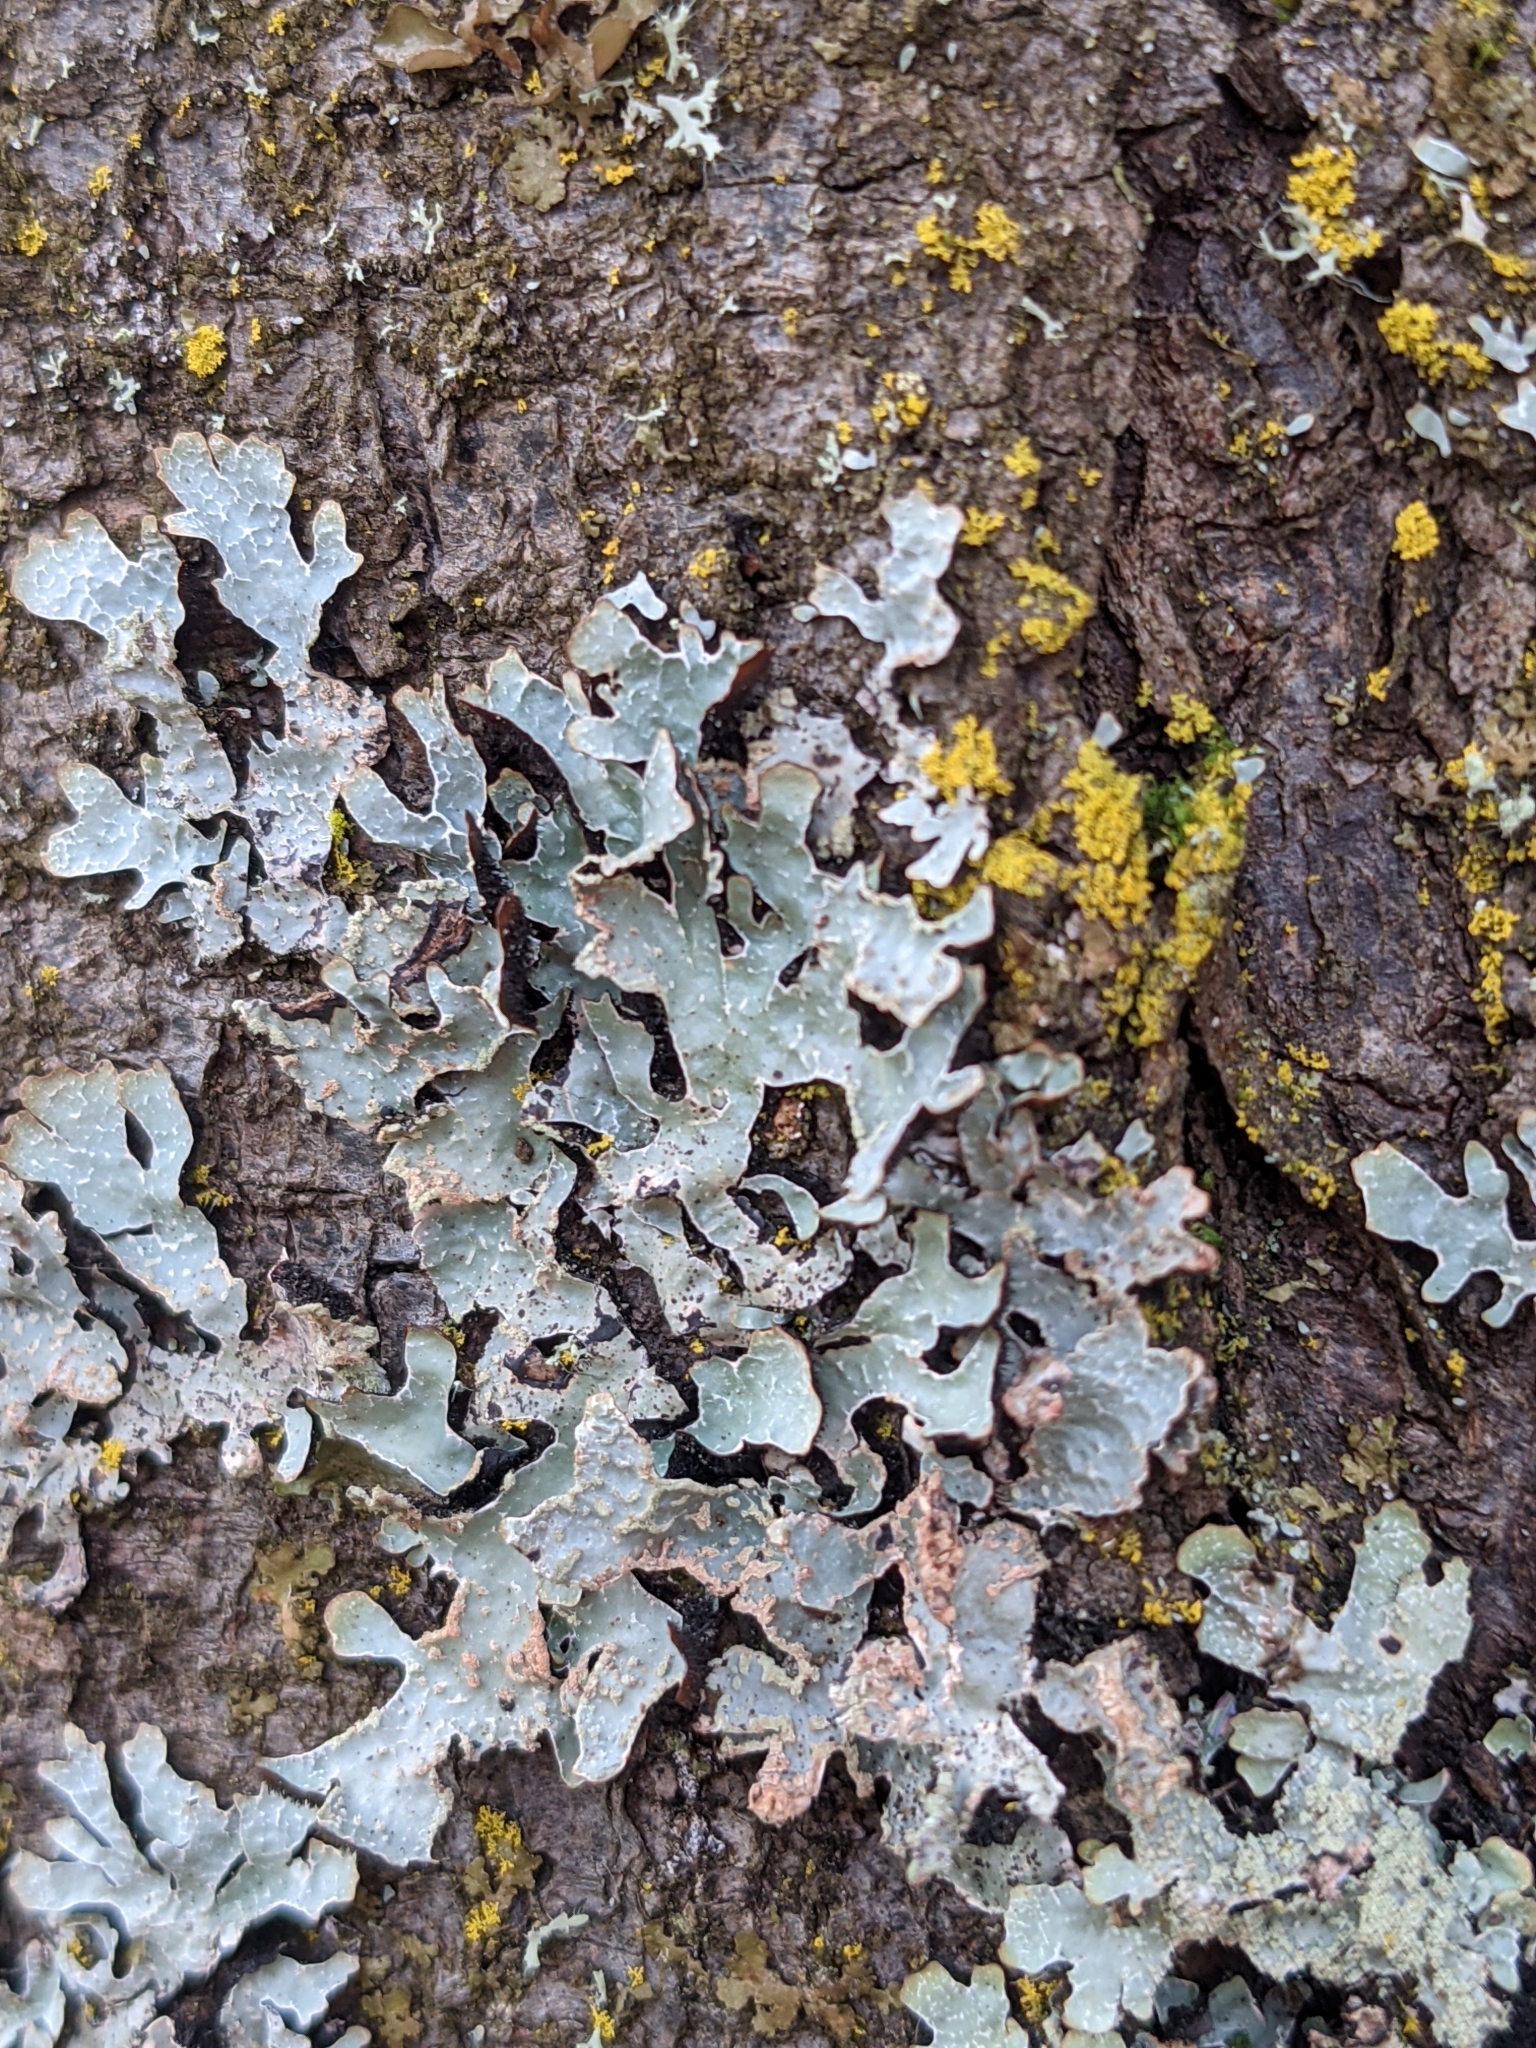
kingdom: Fungi
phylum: Ascomycota
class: Lecanoromycetes
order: Lecanorales
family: Parmeliaceae
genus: Parmelia
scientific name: Parmelia sulcata
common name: Netted shield lichen
